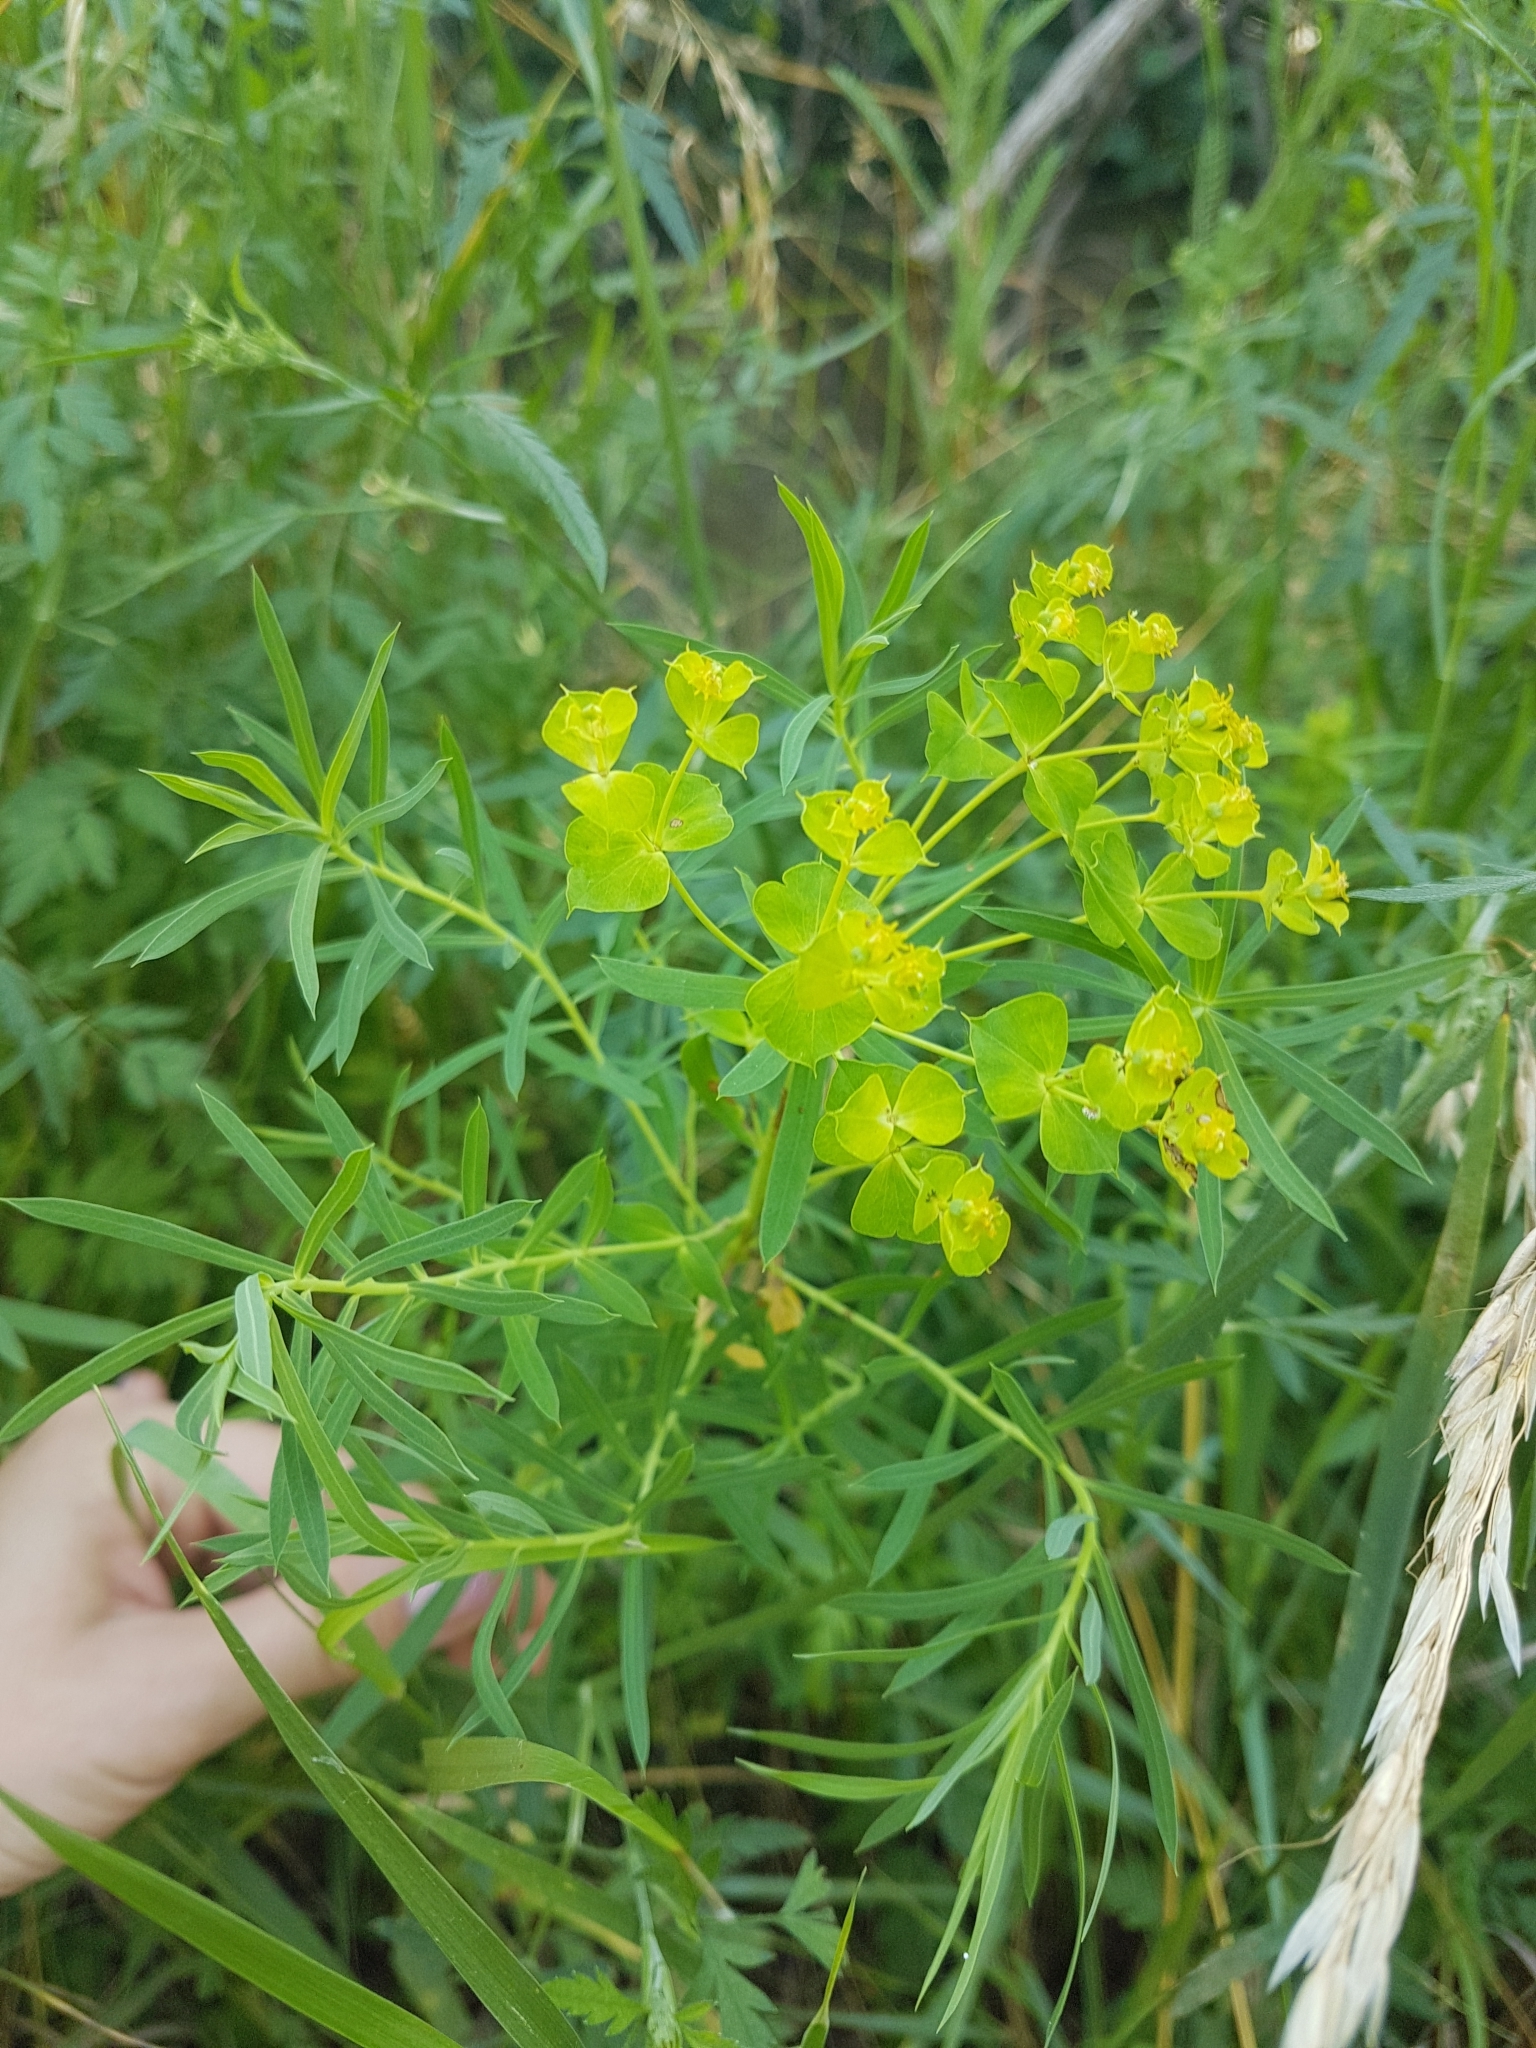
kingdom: Plantae
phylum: Tracheophyta
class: Magnoliopsida
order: Malpighiales
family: Euphorbiaceae
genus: Euphorbia
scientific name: Euphorbia virgata
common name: Leafy spurge
